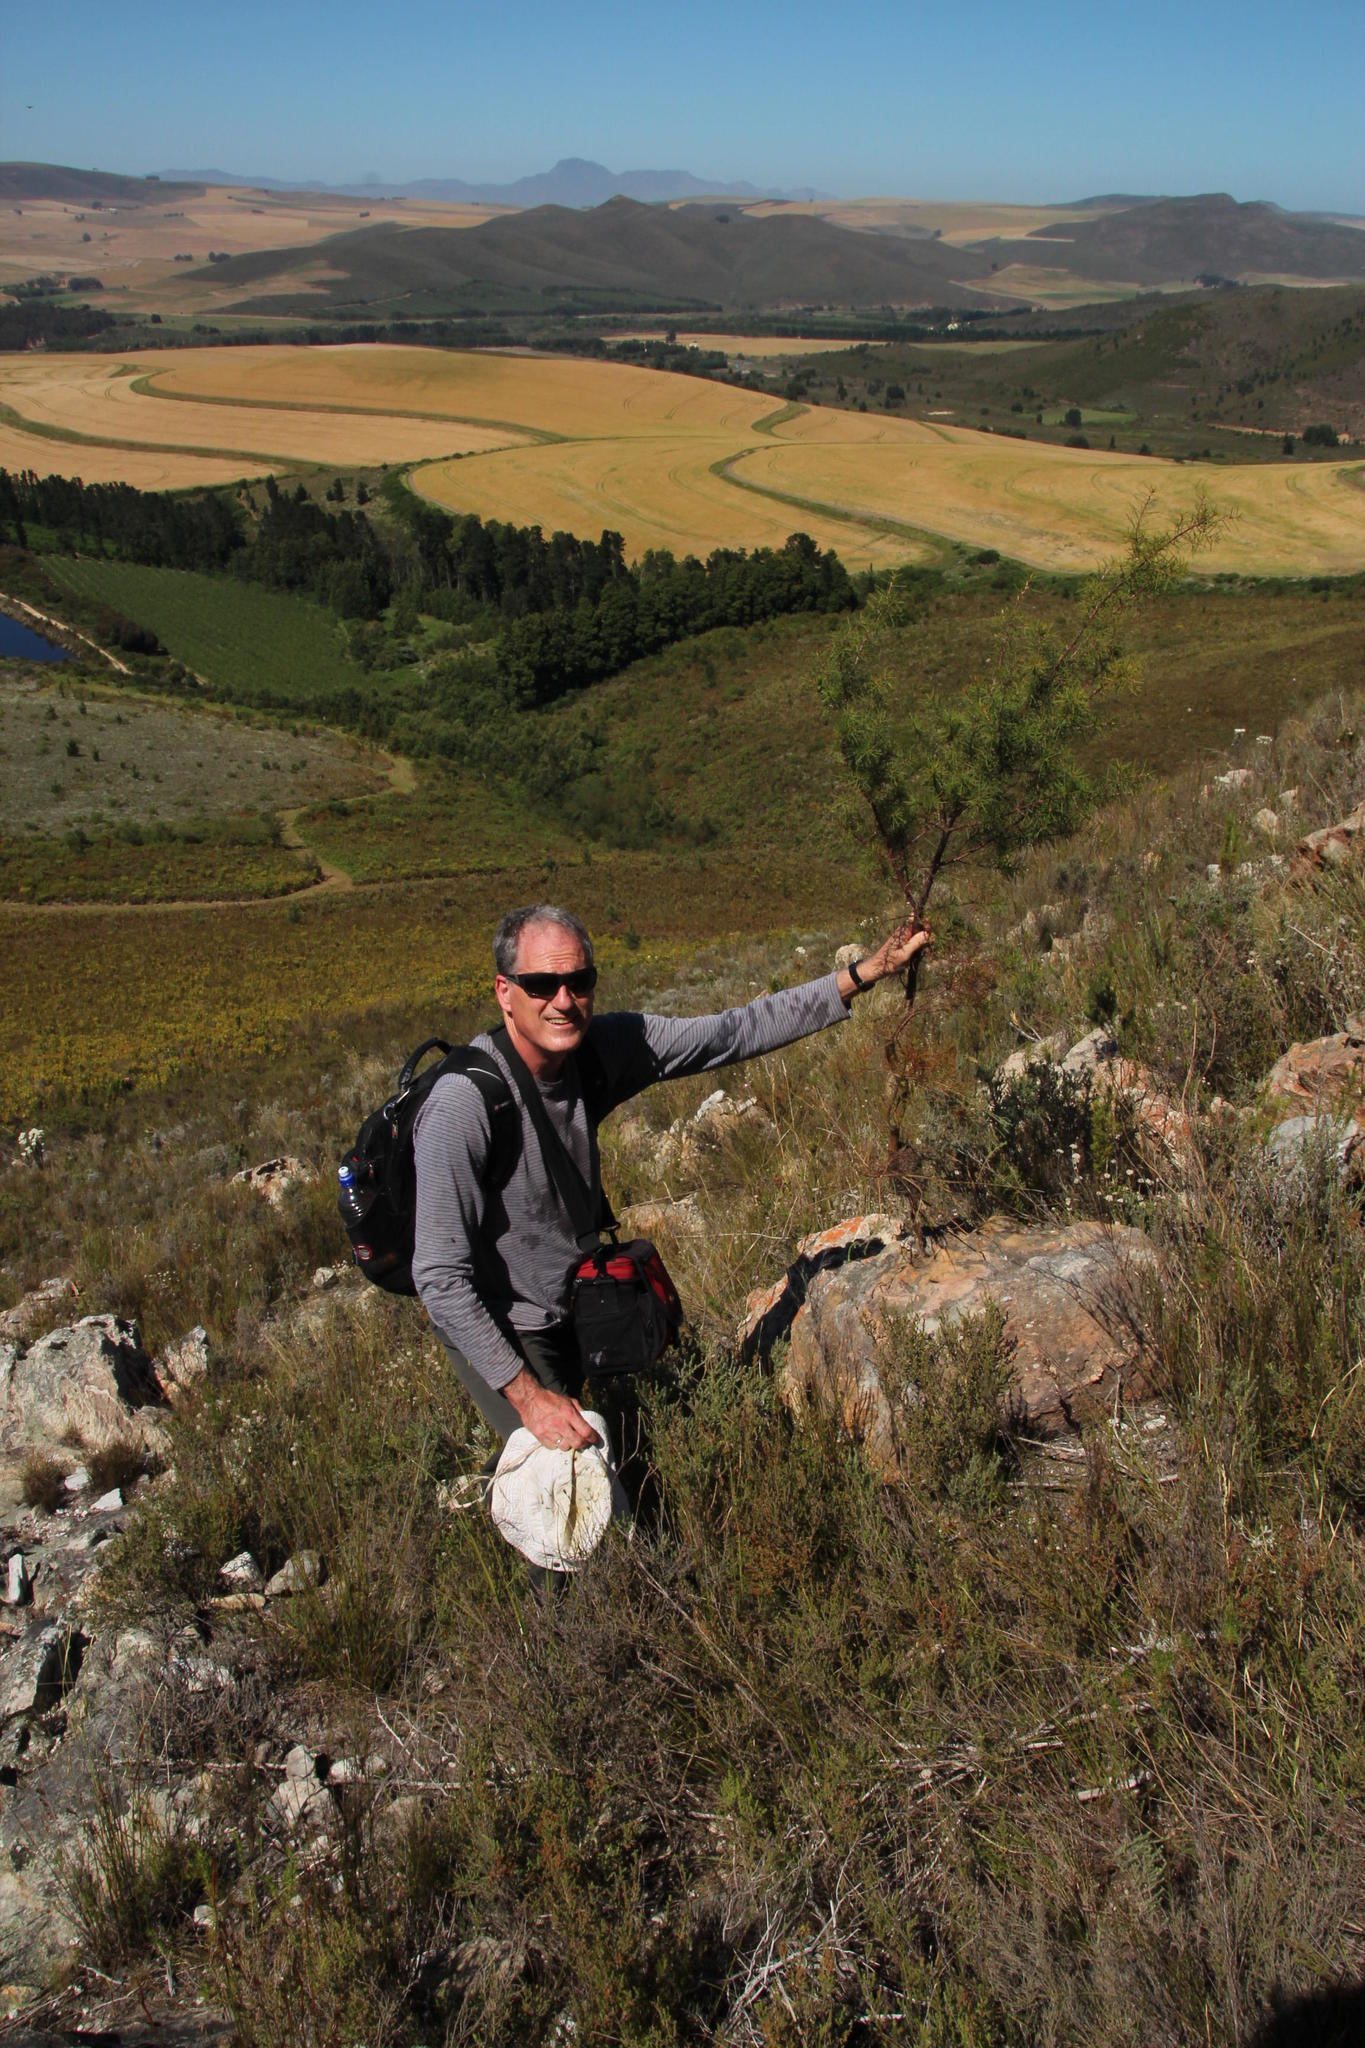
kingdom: Plantae
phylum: Tracheophyta
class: Magnoliopsida
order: Proteales
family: Proteaceae
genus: Hakea
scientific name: Hakea sericea
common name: Needle bush
